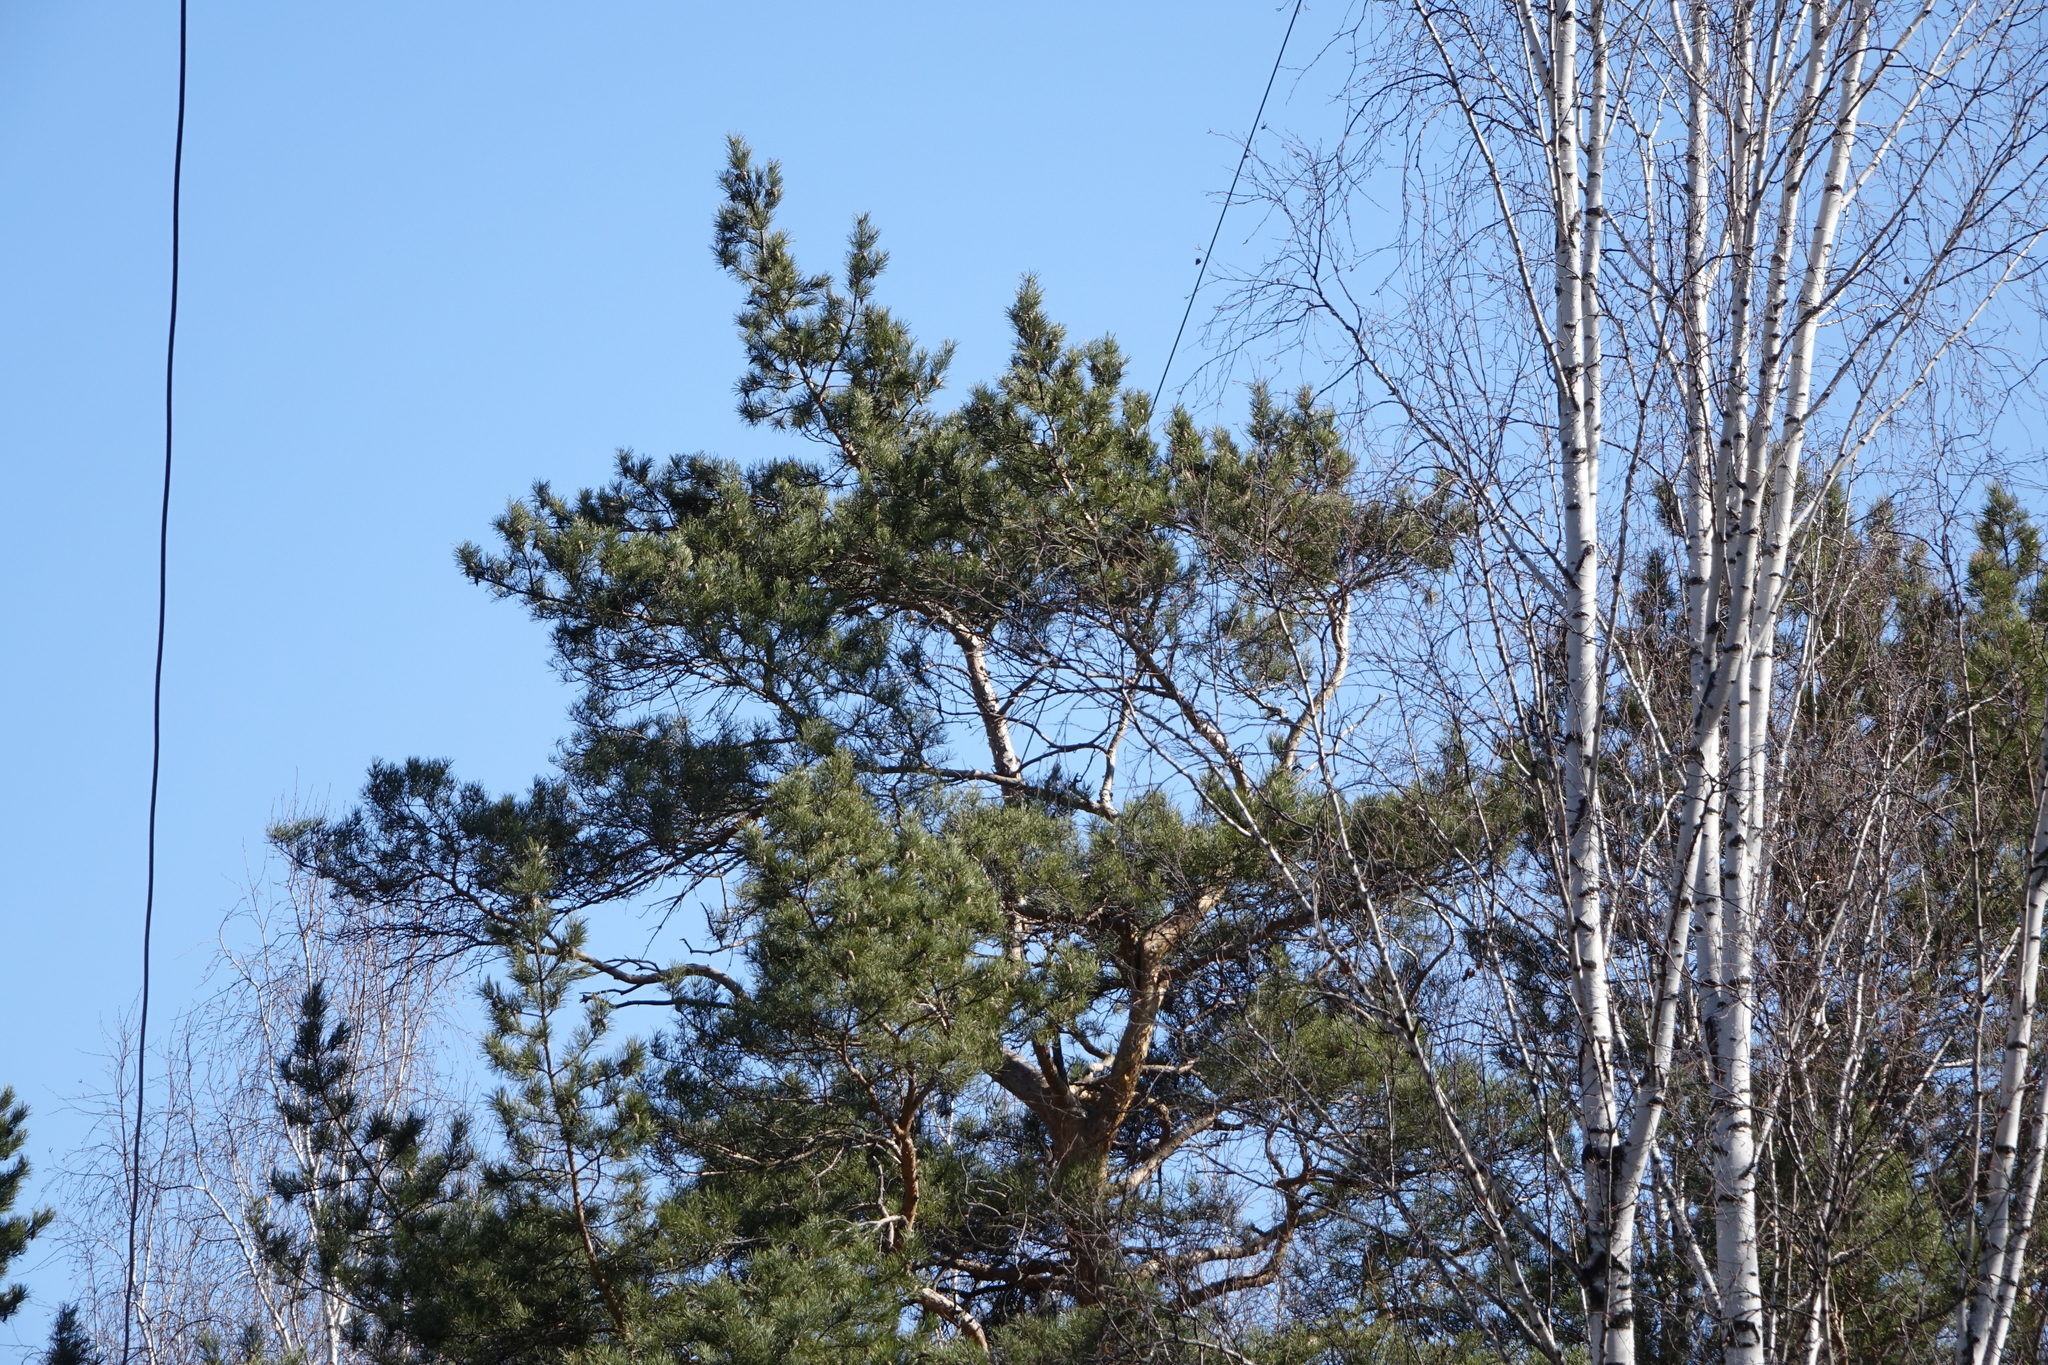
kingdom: Plantae
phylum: Tracheophyta
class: Pinopsida
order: Pinales
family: Pinaceae
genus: Pinus
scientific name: Pinus sylvestris
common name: Scots pine
